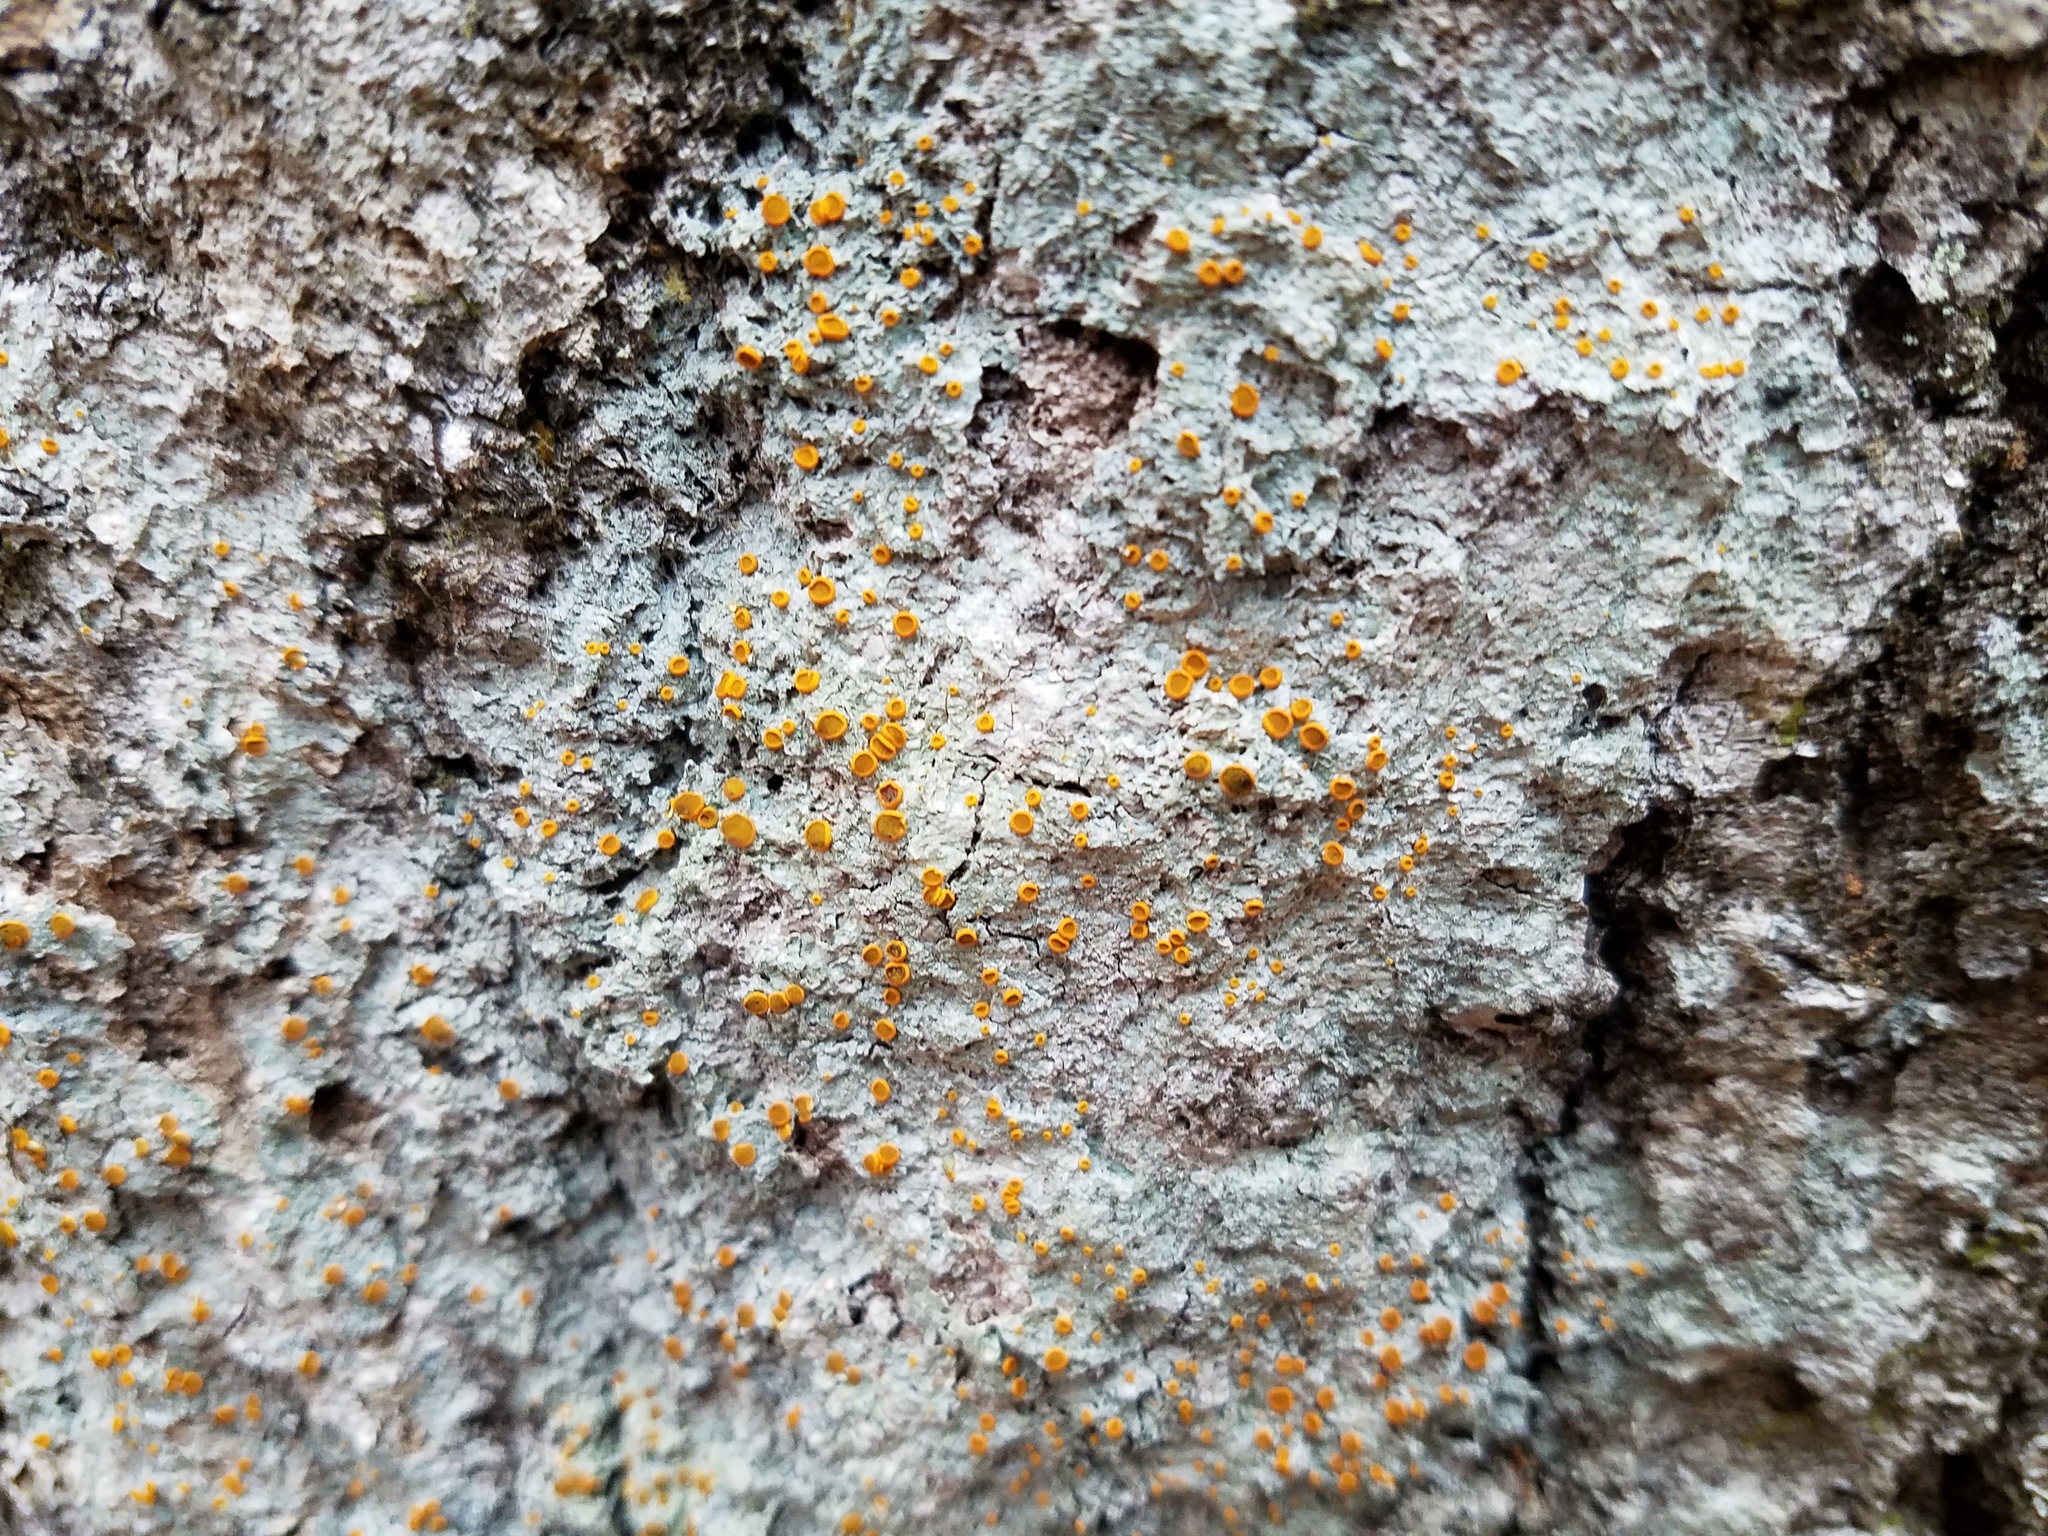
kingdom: Fungi
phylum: Ascomycota
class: Lecanoromycetes
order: Teloschistales
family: Brigantiaeaceae
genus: Brigantiaea
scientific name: Brigantiaea leucoxantha
